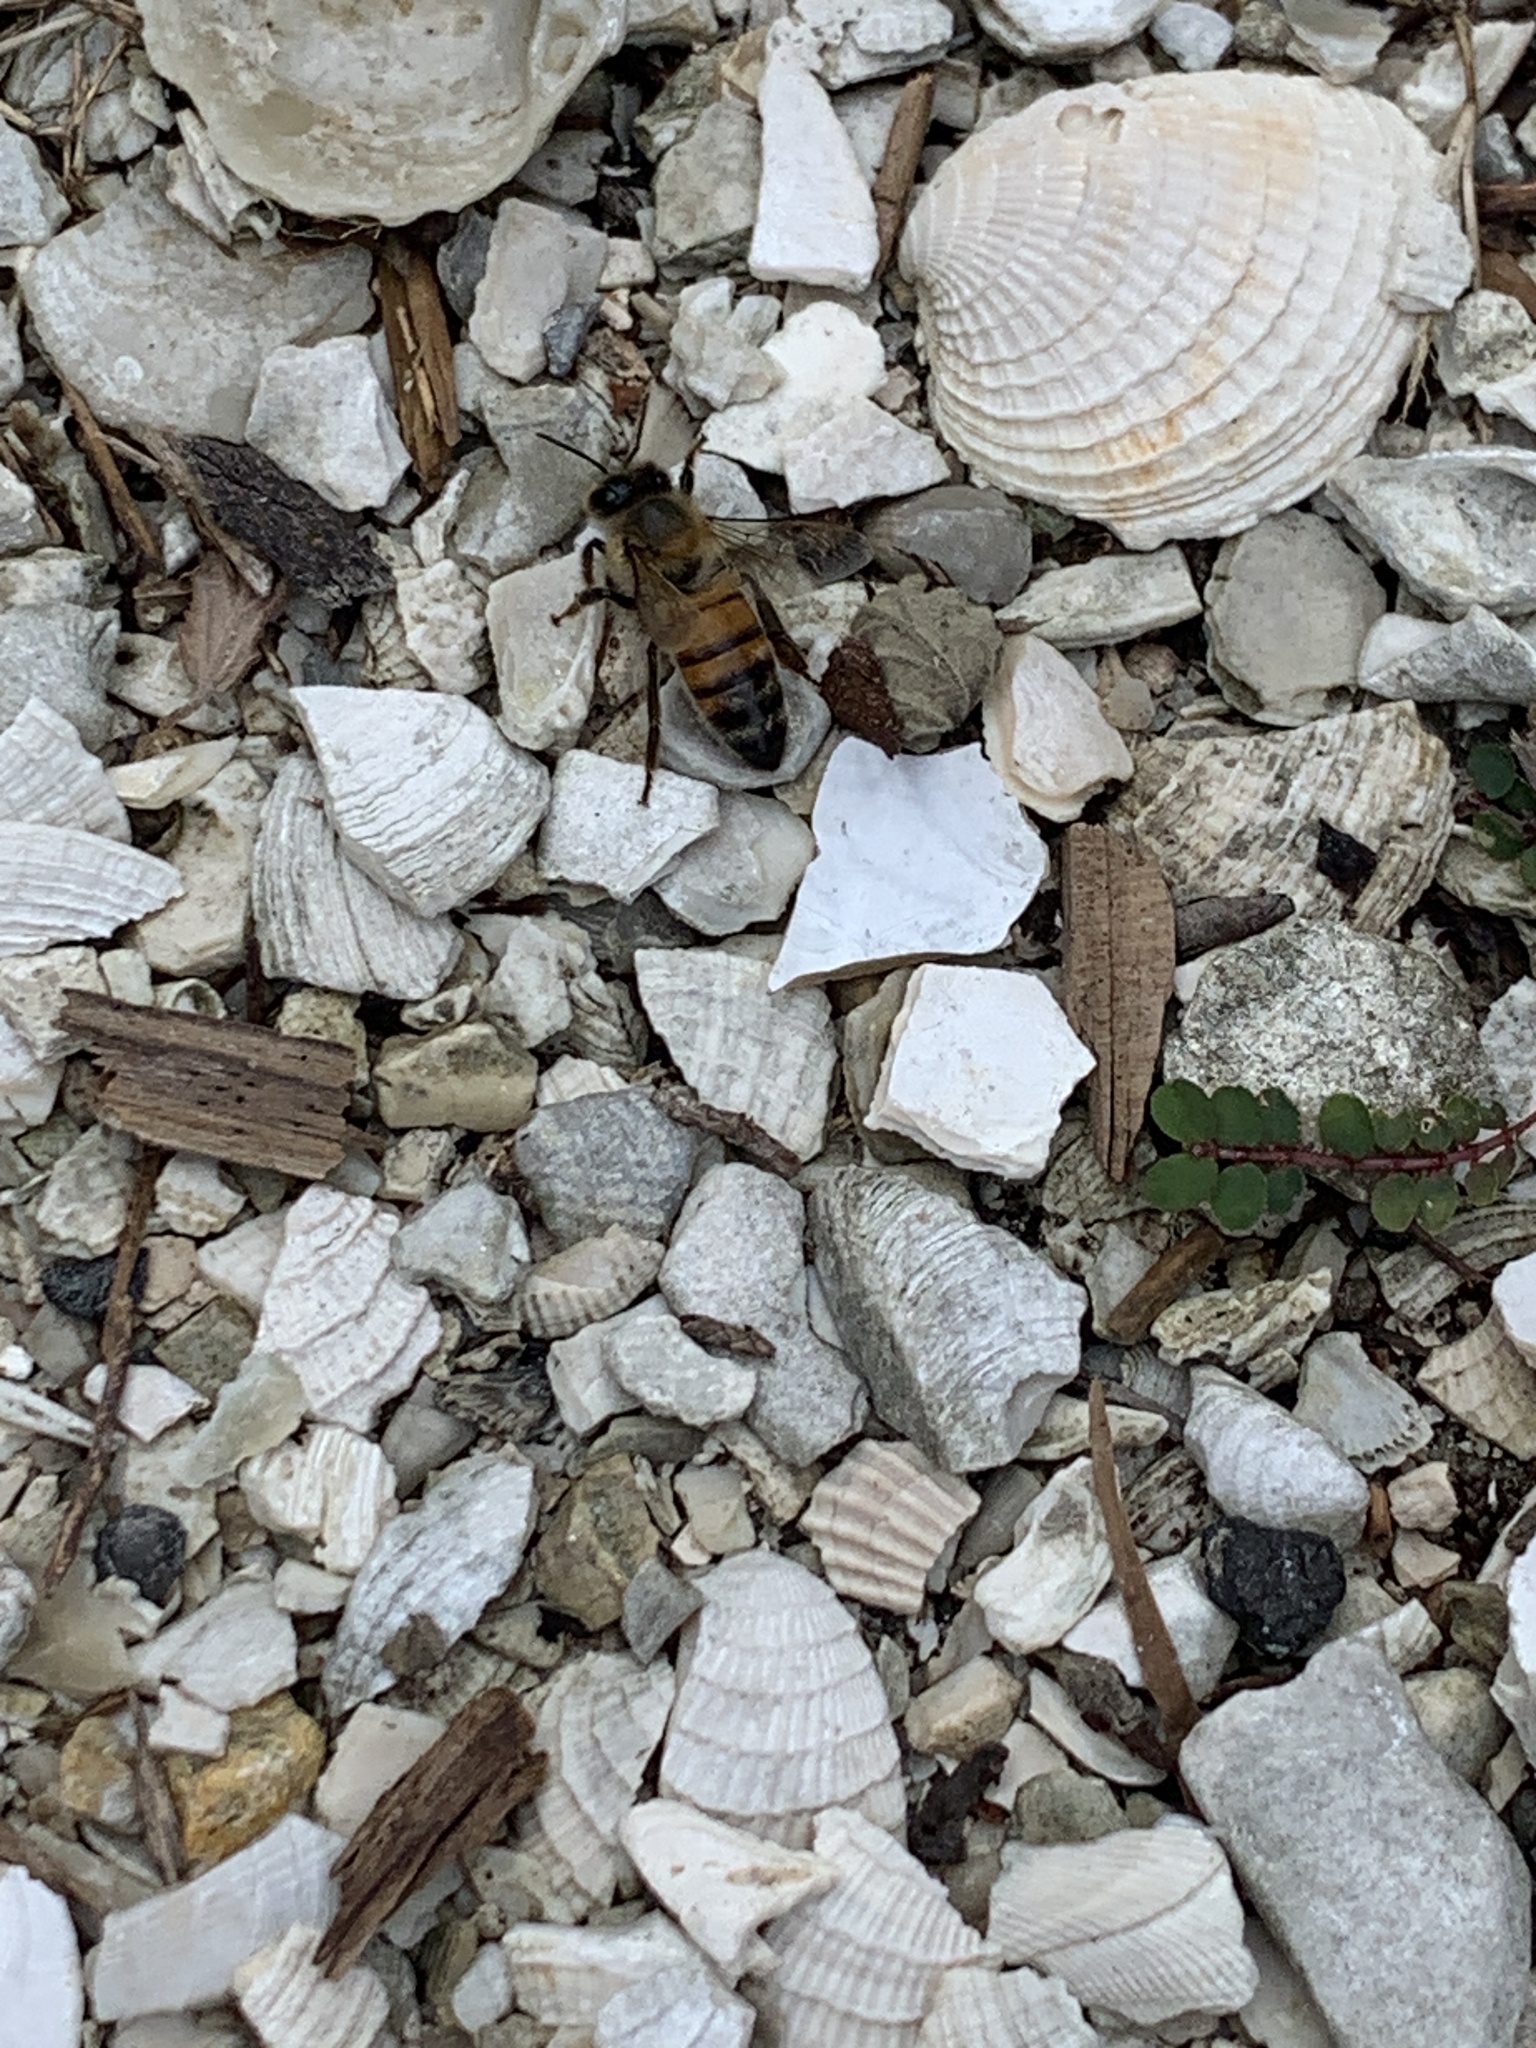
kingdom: Animalia
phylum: Arthropoda
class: Insecta
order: Hymenoptera
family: Apidae
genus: Apis
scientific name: Apis mellifera
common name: Honey bee
